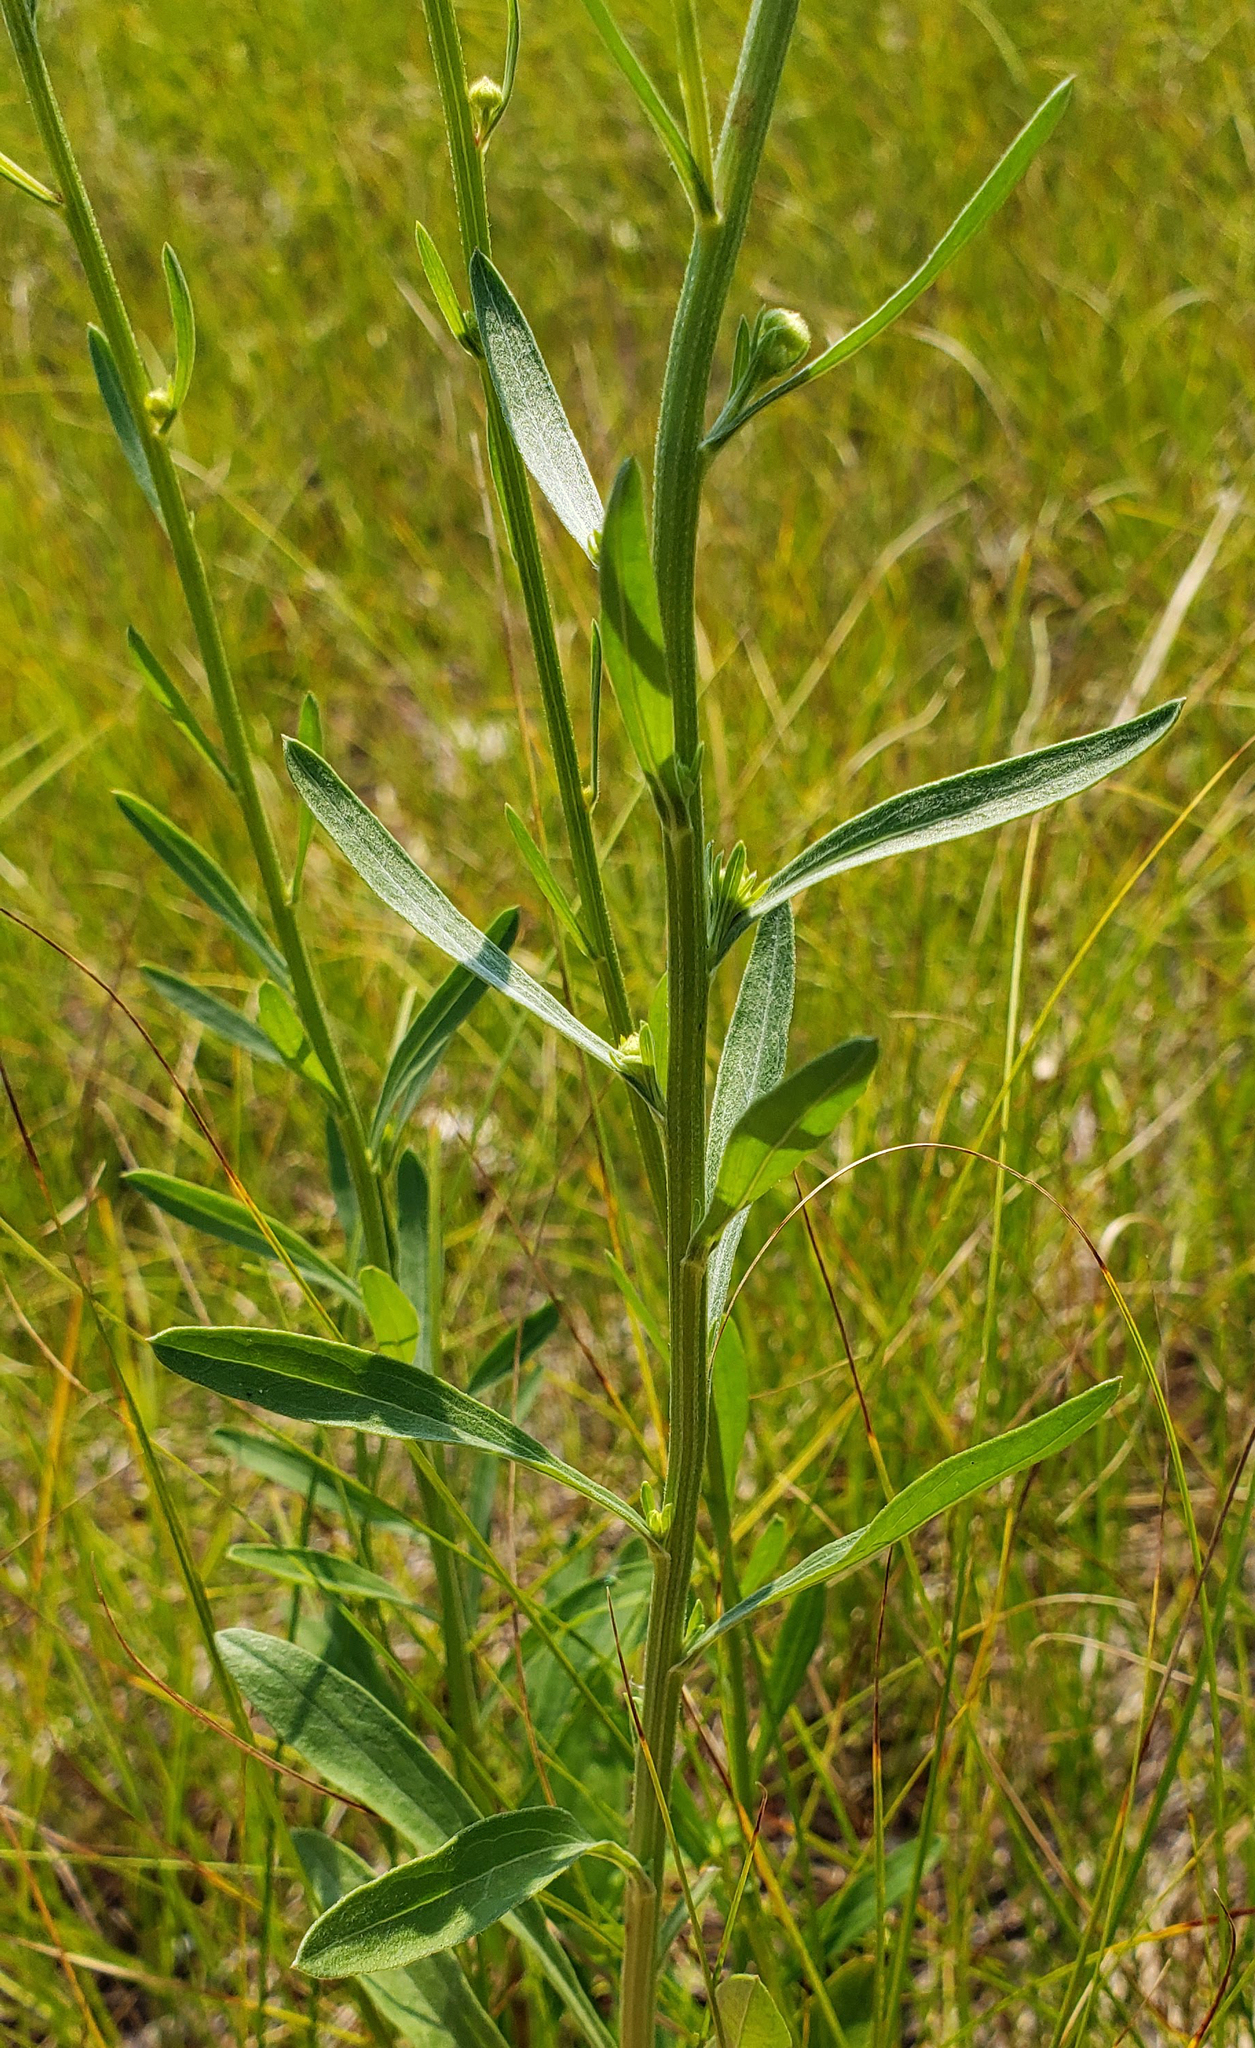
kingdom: Plantae
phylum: Tracheophyta
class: Magnoliopsida
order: Asterales
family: Asteraceae
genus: Erigeron
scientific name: Erigeron strigosus
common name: Common eastern fleabane
